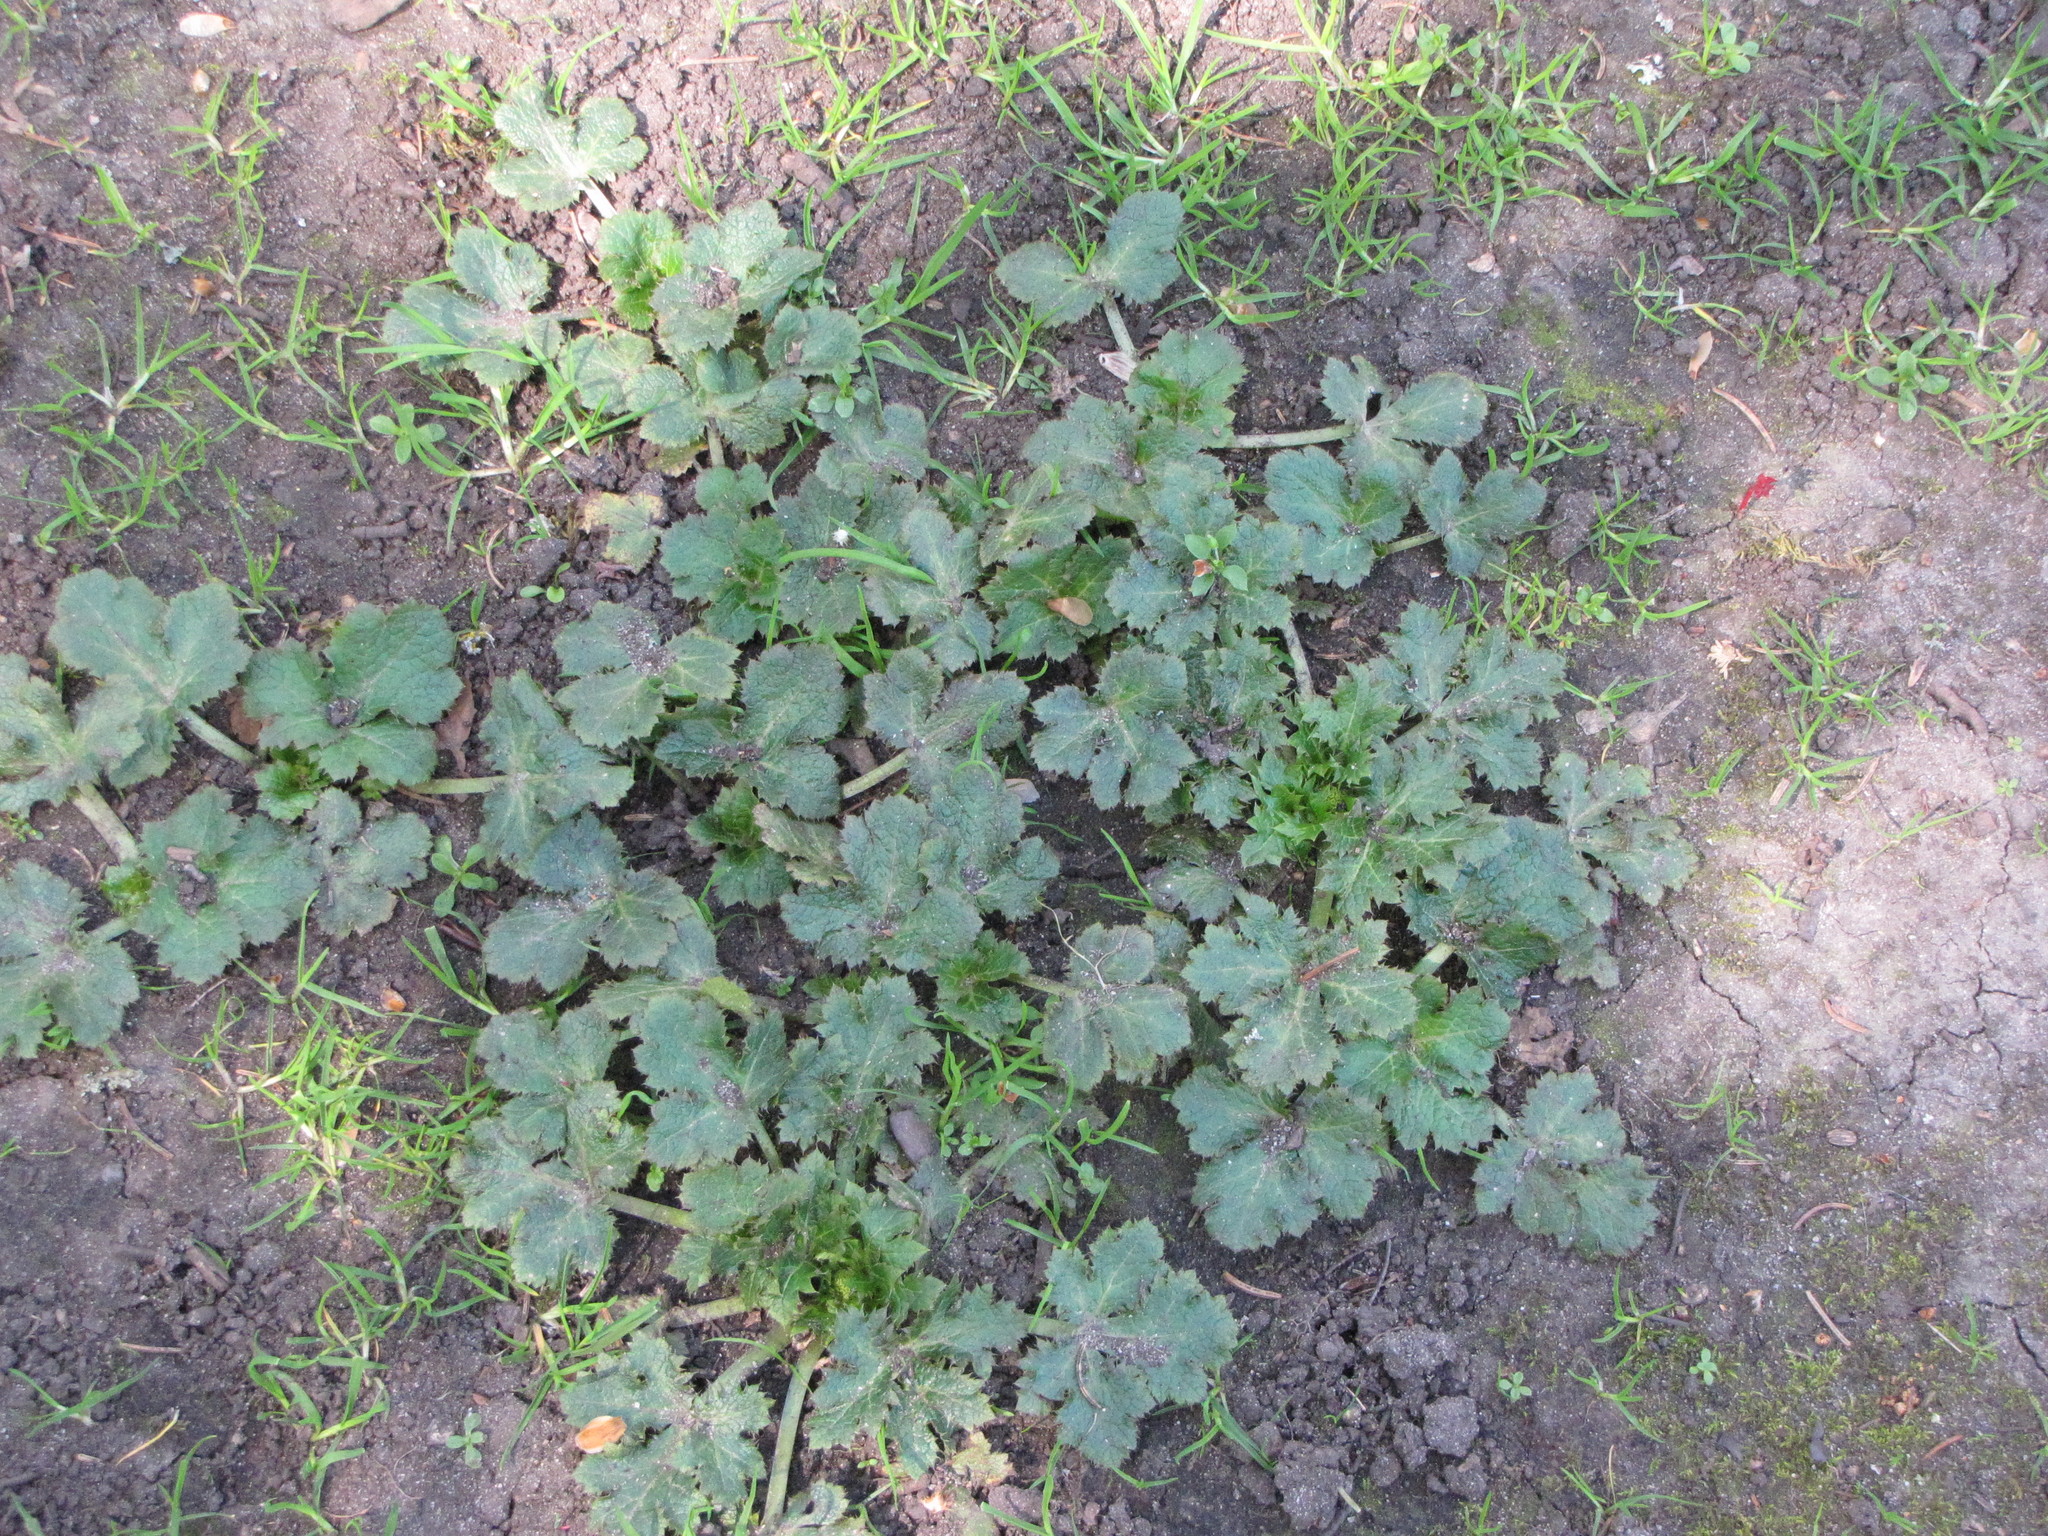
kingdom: Plantae
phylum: Tracheophyta
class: Magnoliopsida
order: Apiales
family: Apiaceae
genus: Sanicula
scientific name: Sanicula crassicaulis
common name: Western snakeroot
